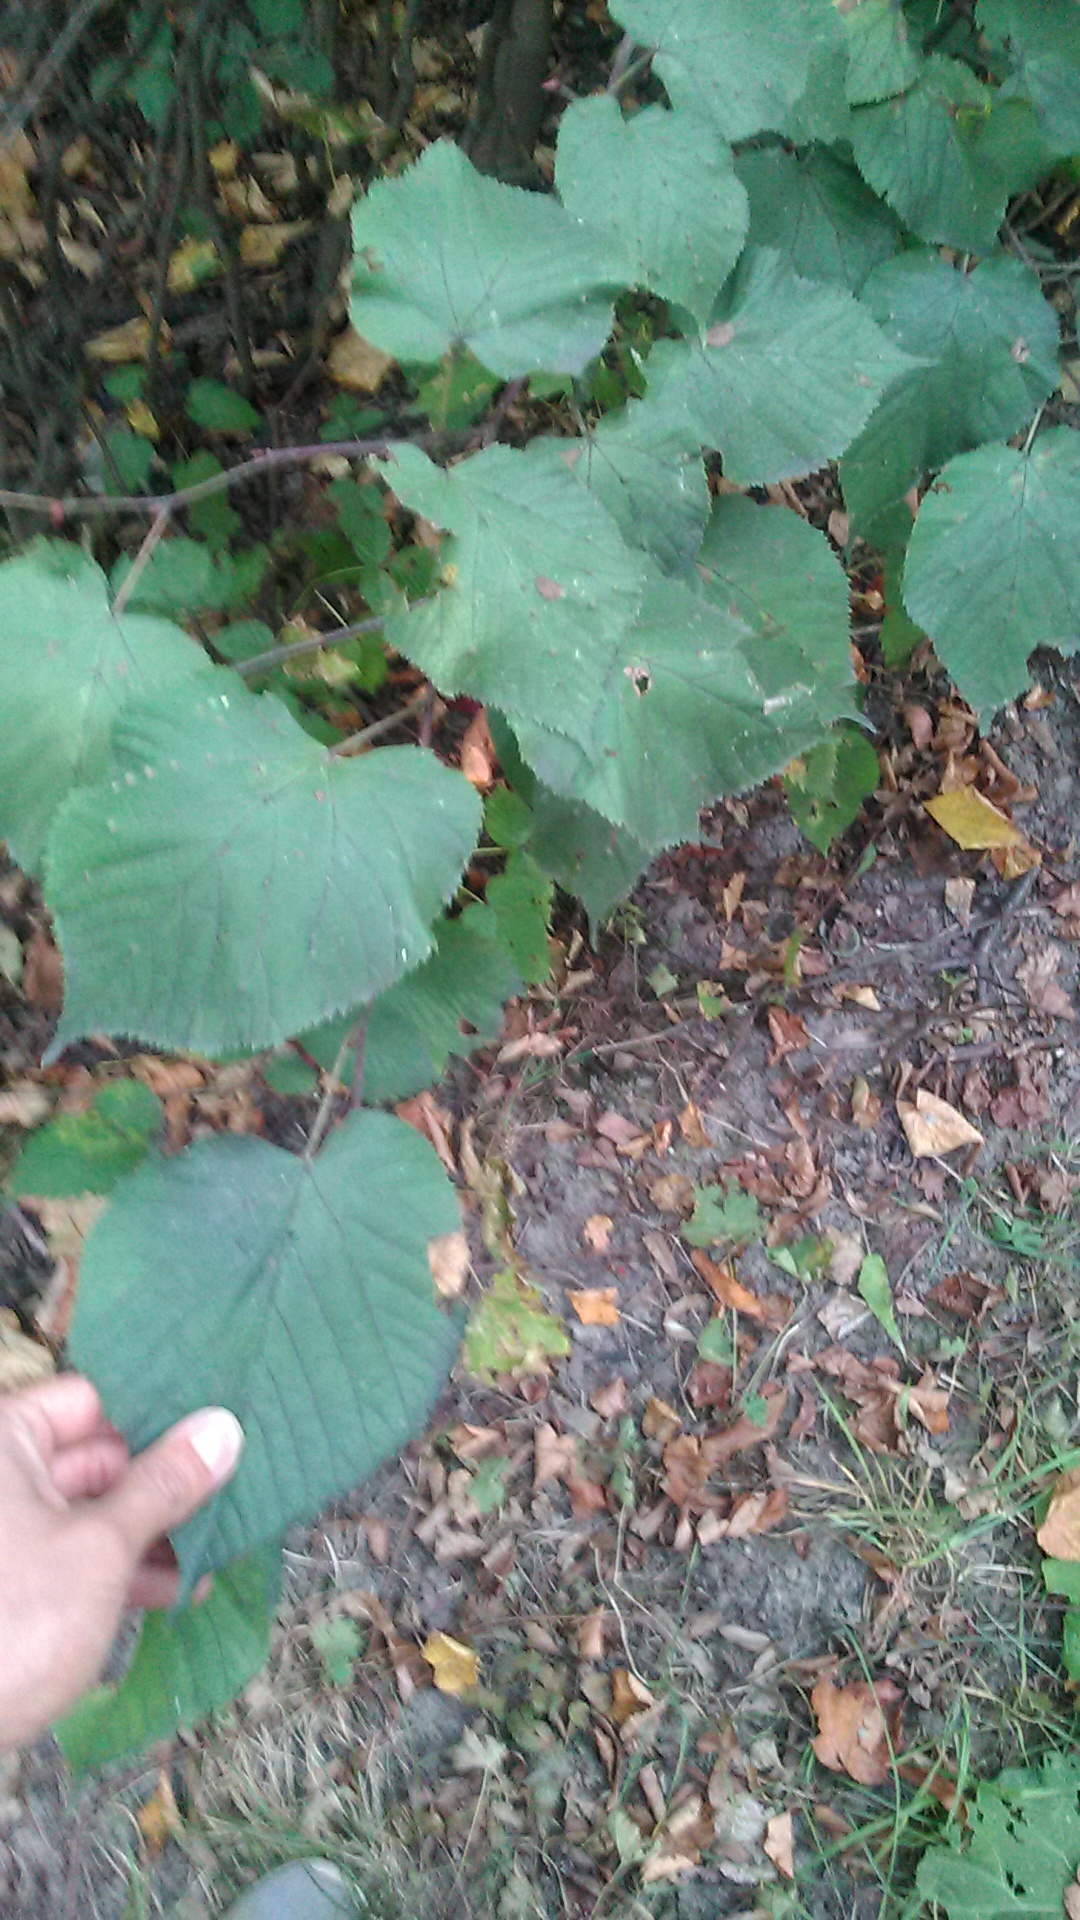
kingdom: Plantae
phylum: Tracheophyta
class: Magnoliopsida
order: Malvales
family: Malvaceae
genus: Tilia
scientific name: Tilia cordata
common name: Small-leaved lime
